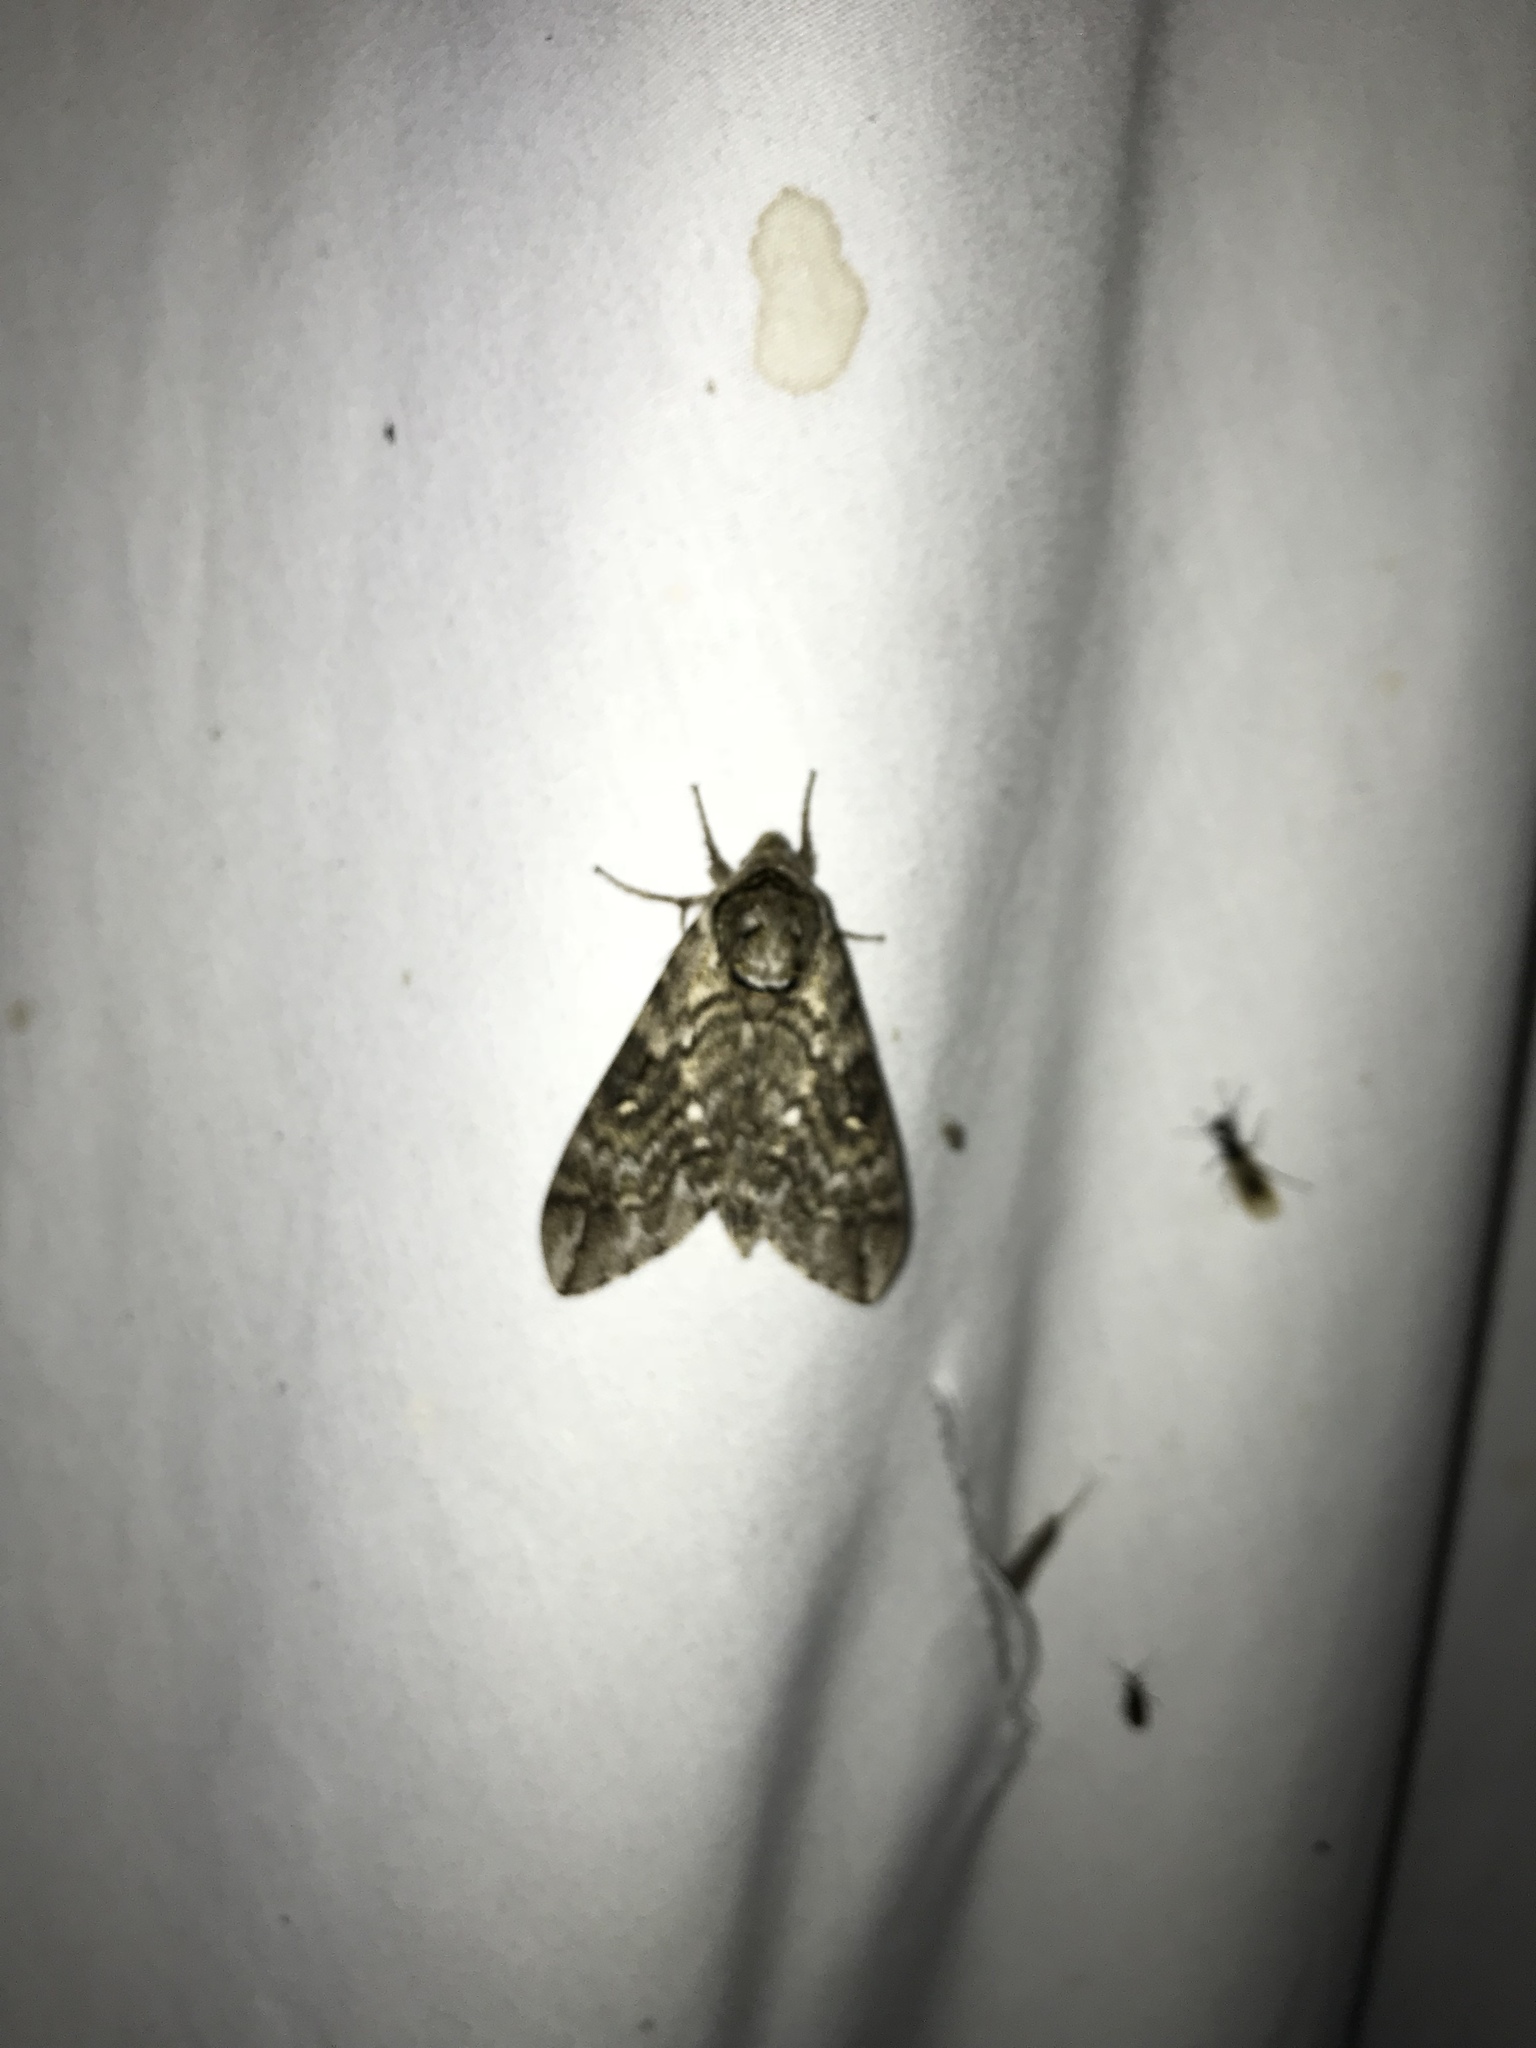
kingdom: Animalia
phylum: Arthropoda
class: Insecta
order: Lepidoptera
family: Sphingidae
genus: Ceratomia
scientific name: Ceratomia undulosa
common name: Waved sphinx
